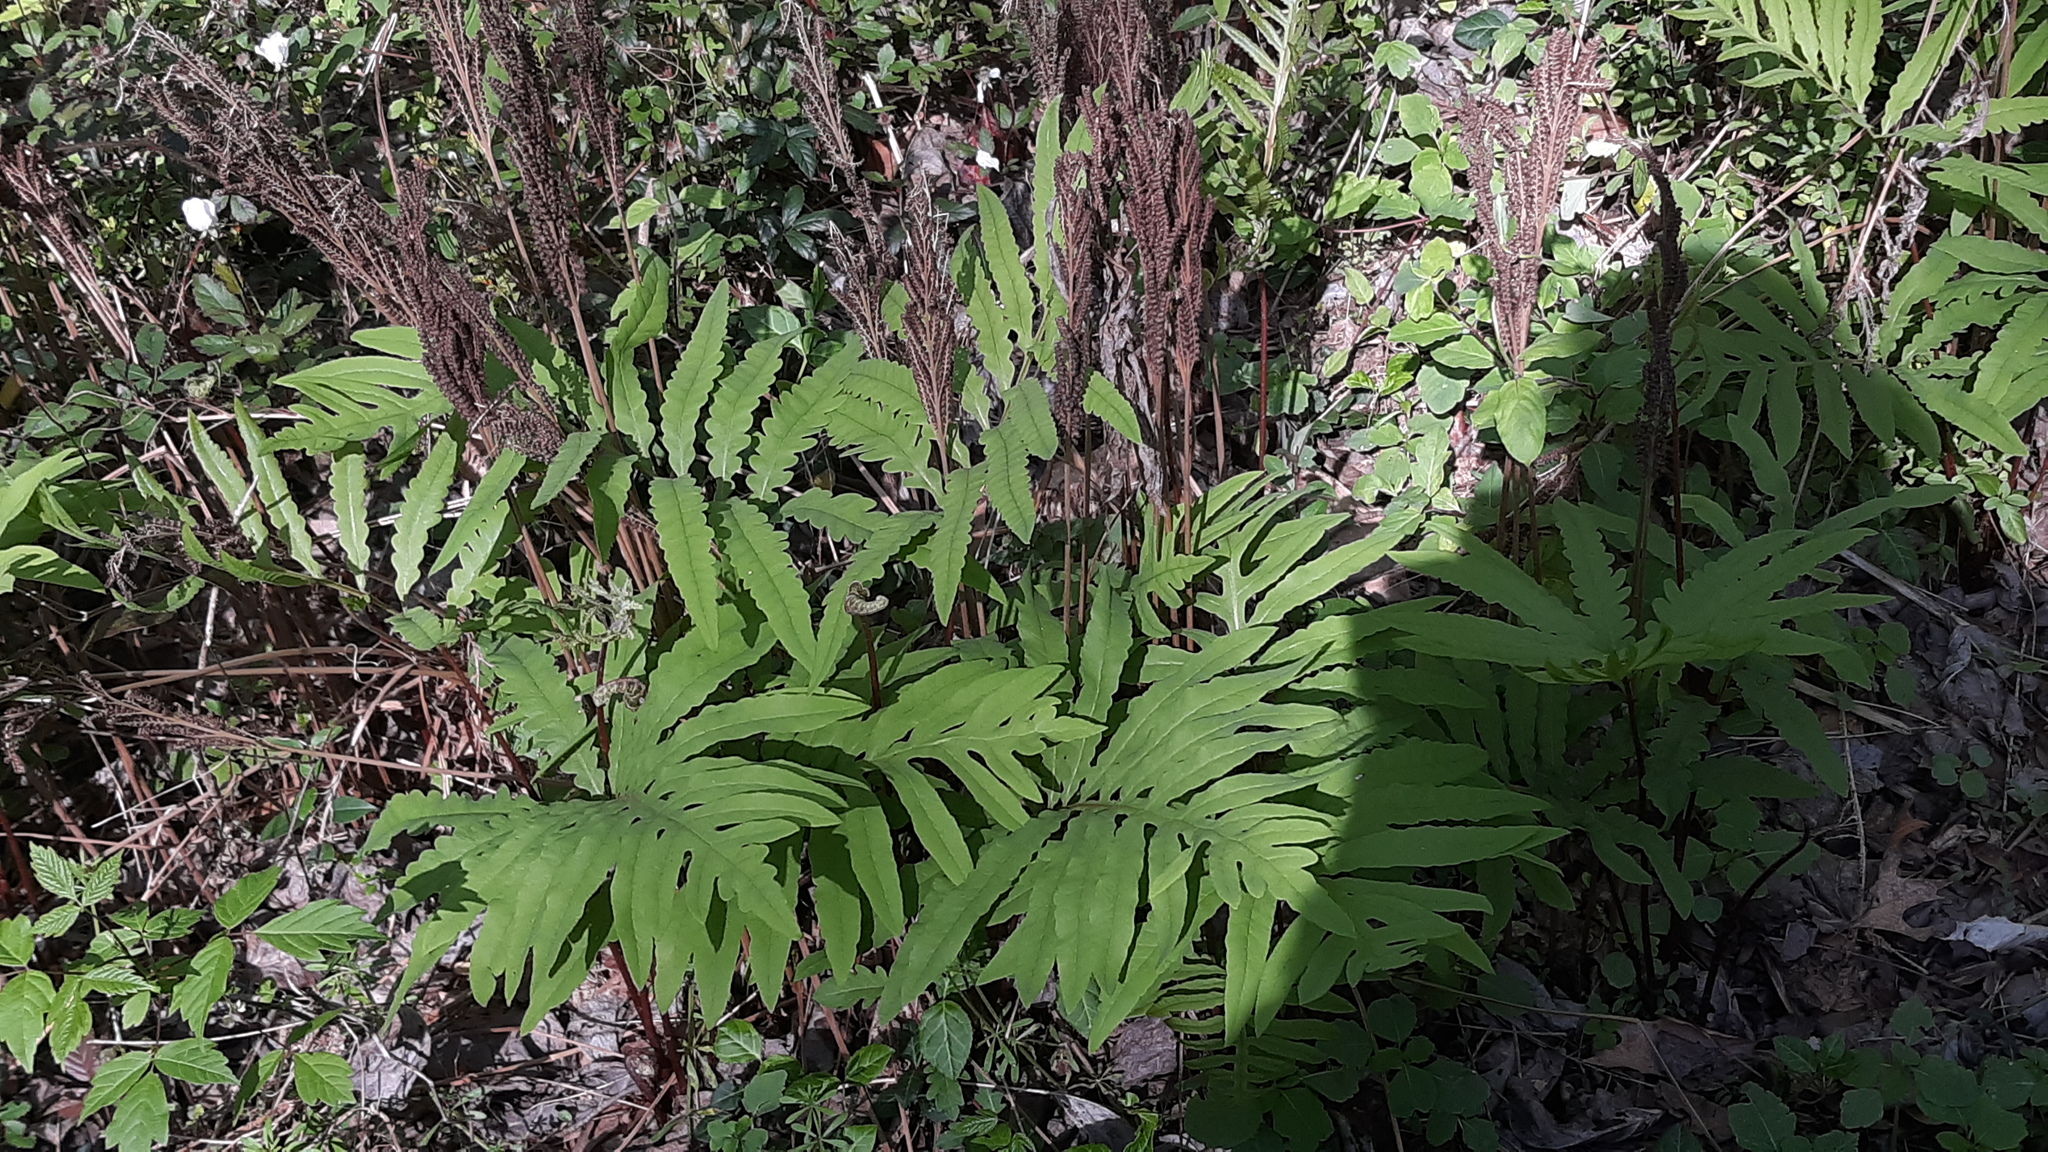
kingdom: Plantae
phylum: Tracheophyta
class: Polypodiopsida
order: Polypodiales
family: Onocleaceae
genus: Onoclea
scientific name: Onoclea sensibilis
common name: Sensitive fern
